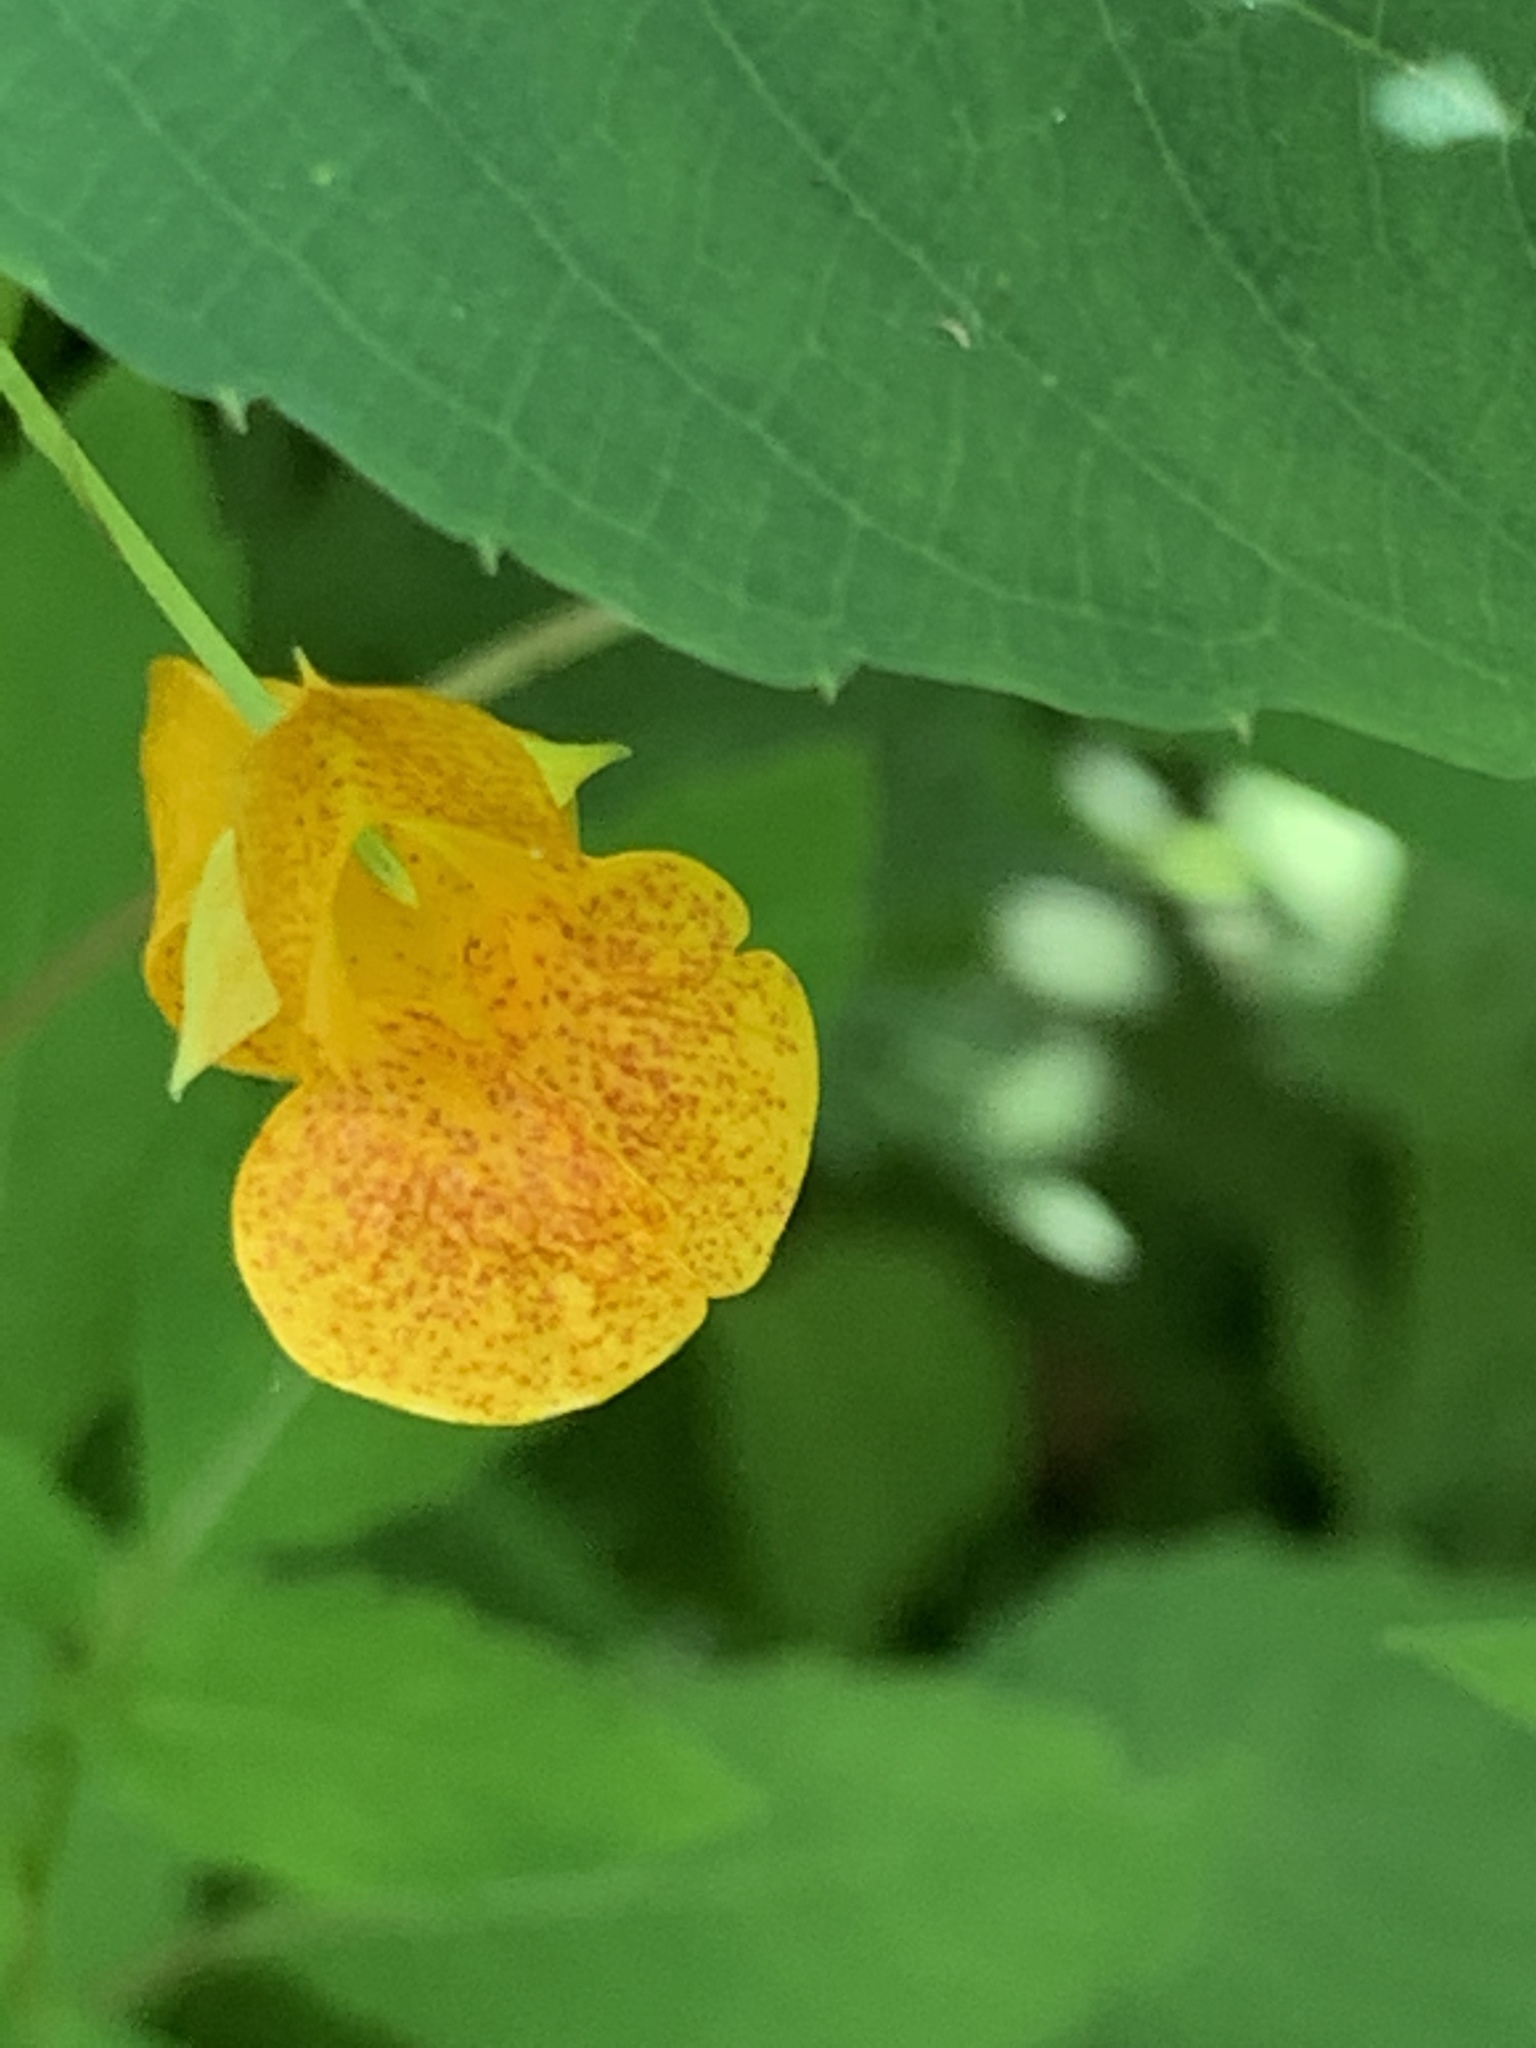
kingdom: Plantae
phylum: Tracheophyta
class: Magnoliopsida
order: Ericales
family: Balsaminaceae
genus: Impatiens
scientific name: Impatiens capensis
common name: Orange balsam
